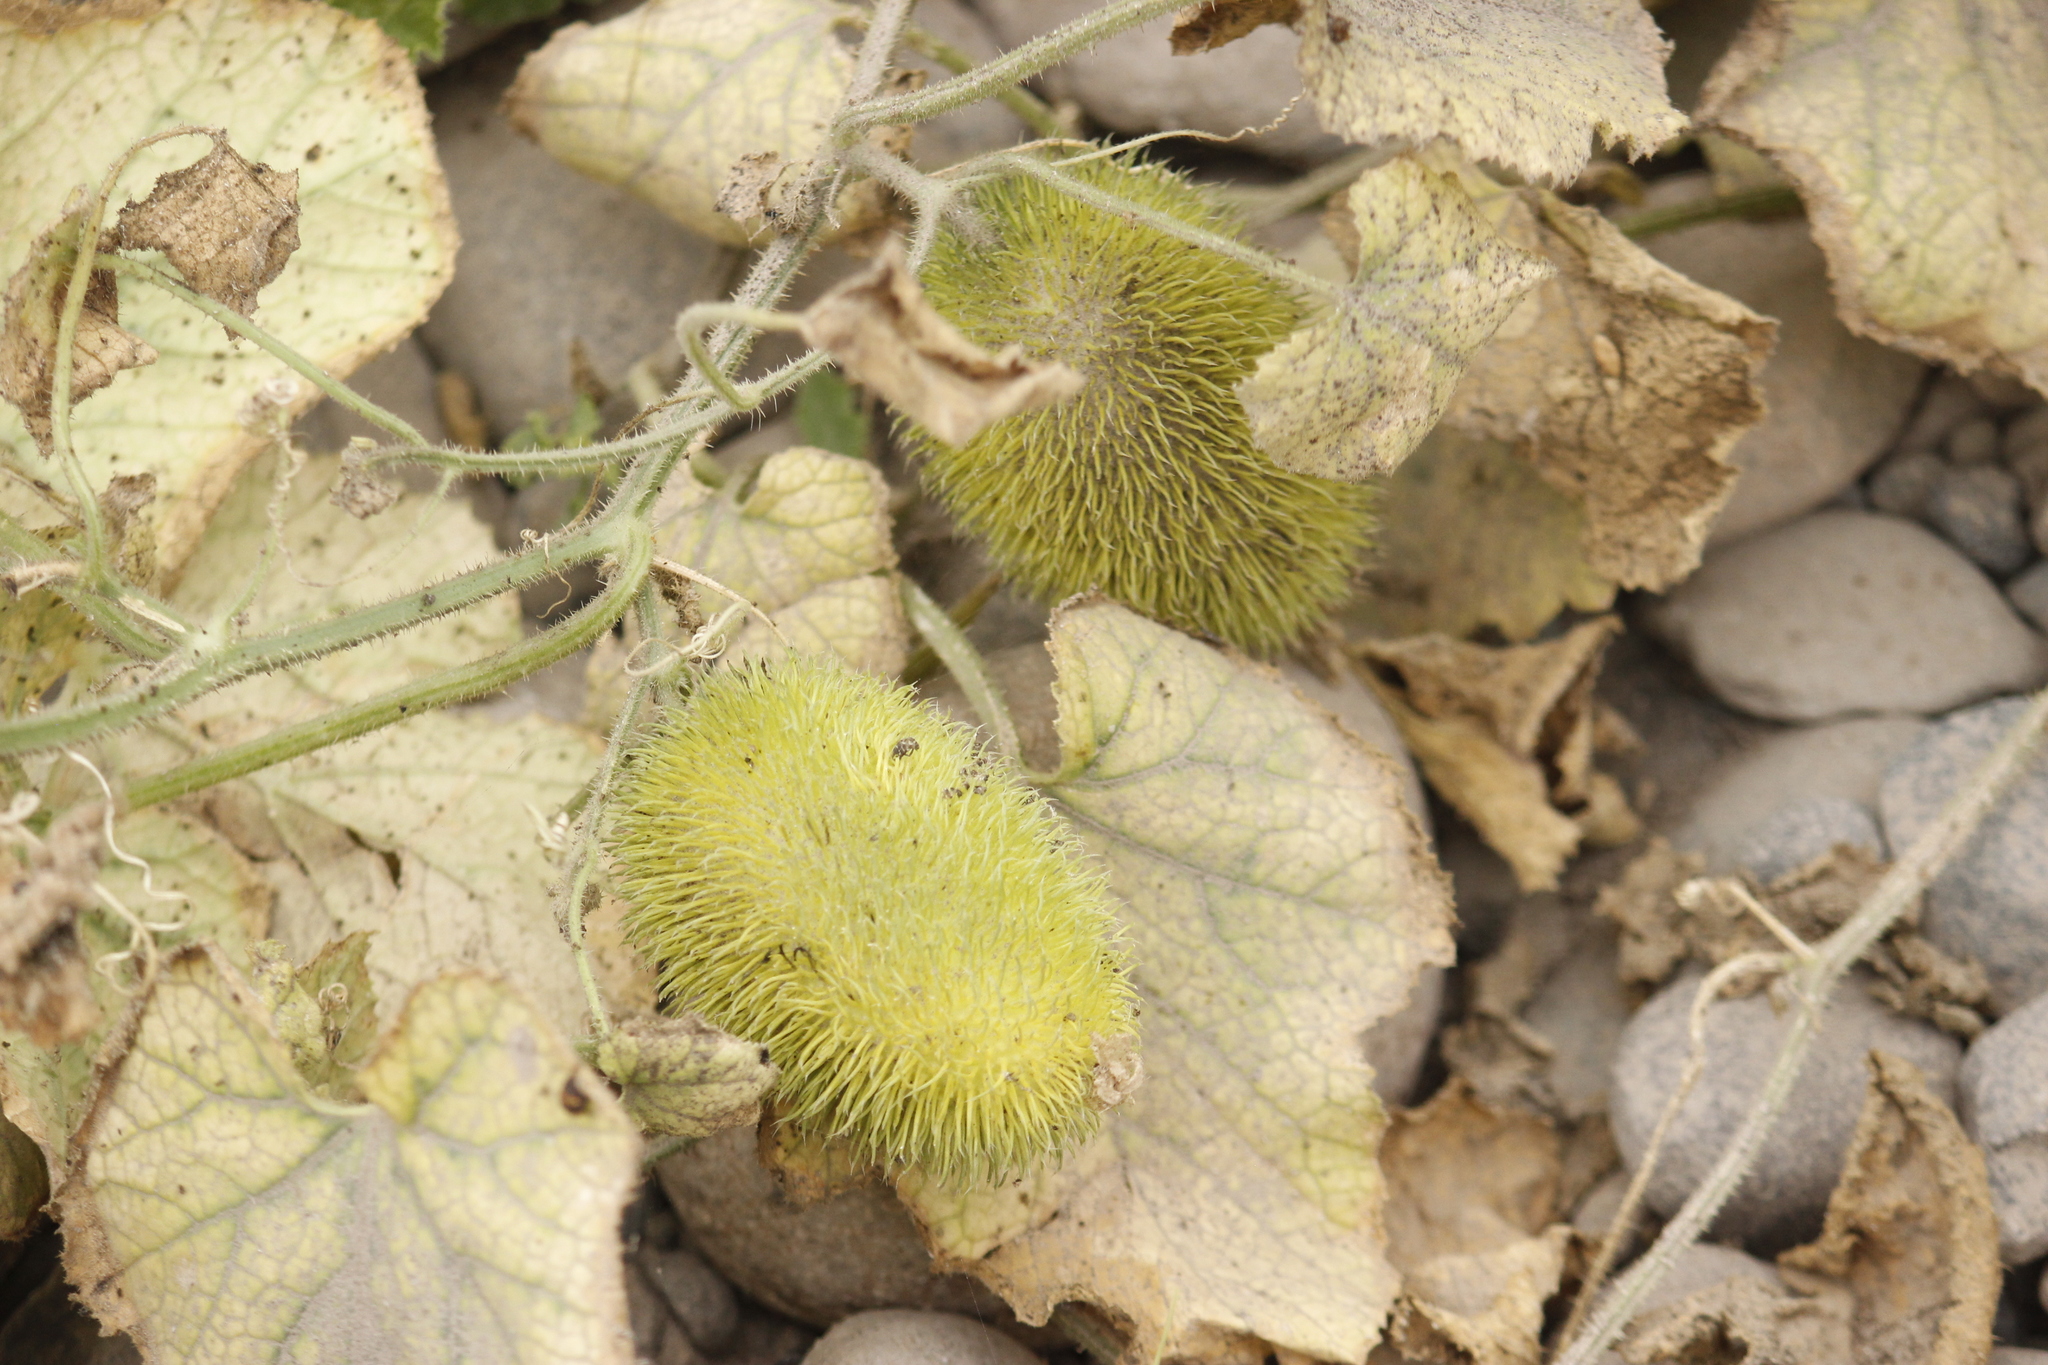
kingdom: Plantae
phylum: Tracheophyta
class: Magnoliopsida
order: Cucurbitales
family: Cucurbitaceae
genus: Cucumis
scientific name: Cucumis dipsaceus
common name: Hedgehog gourd
